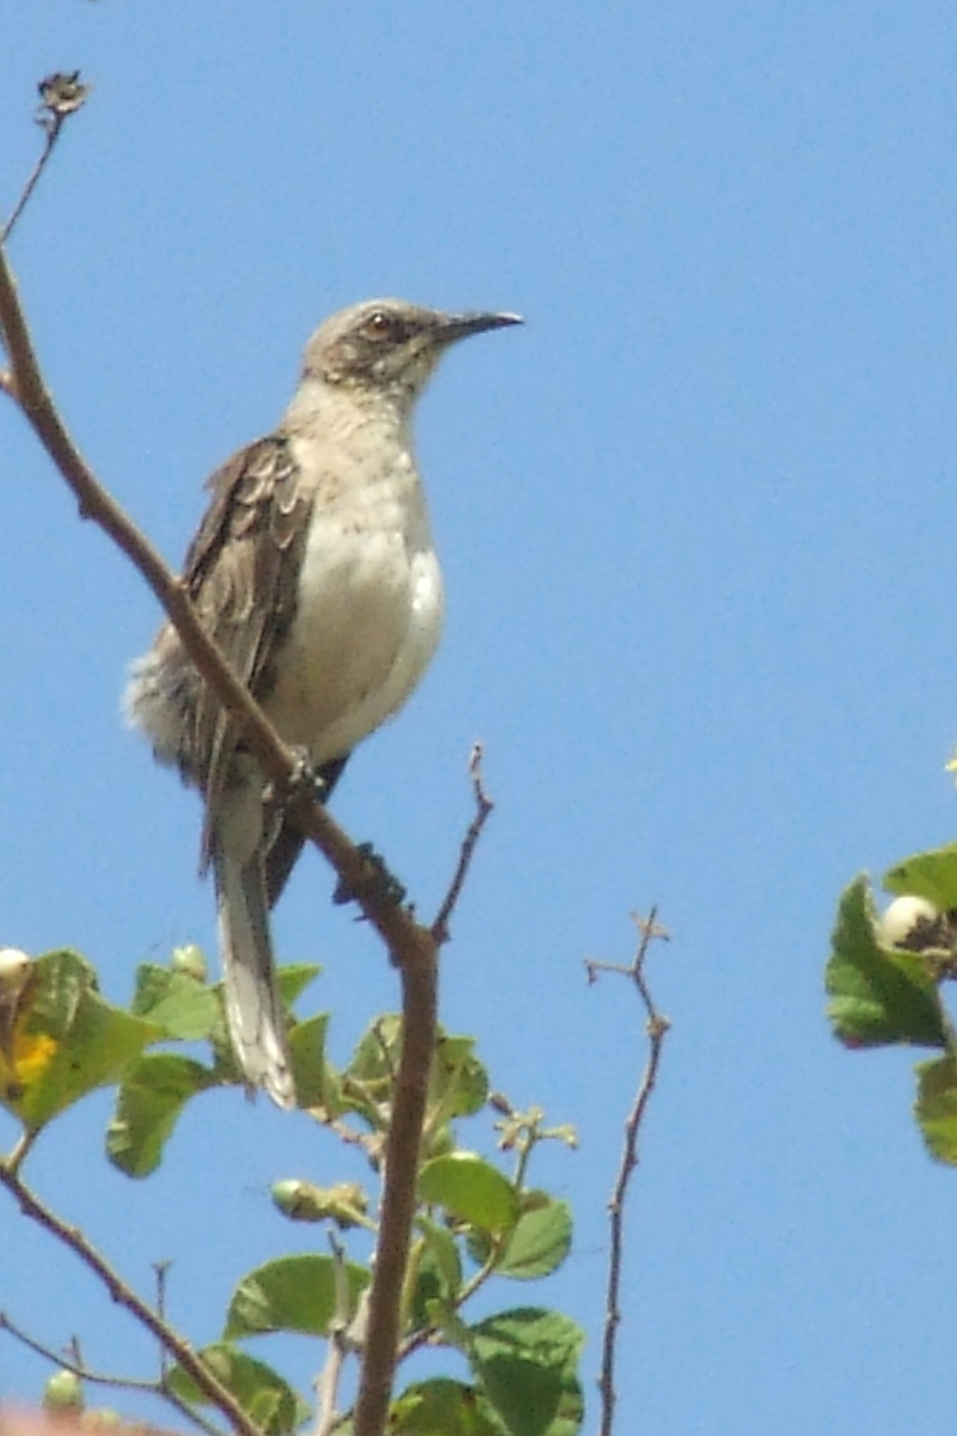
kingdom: Animalia
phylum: Chordata
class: Aves
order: Passeriformes
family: Mimidae
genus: Mimus
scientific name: Mimus melanotis
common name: San cristobal mockingbird
